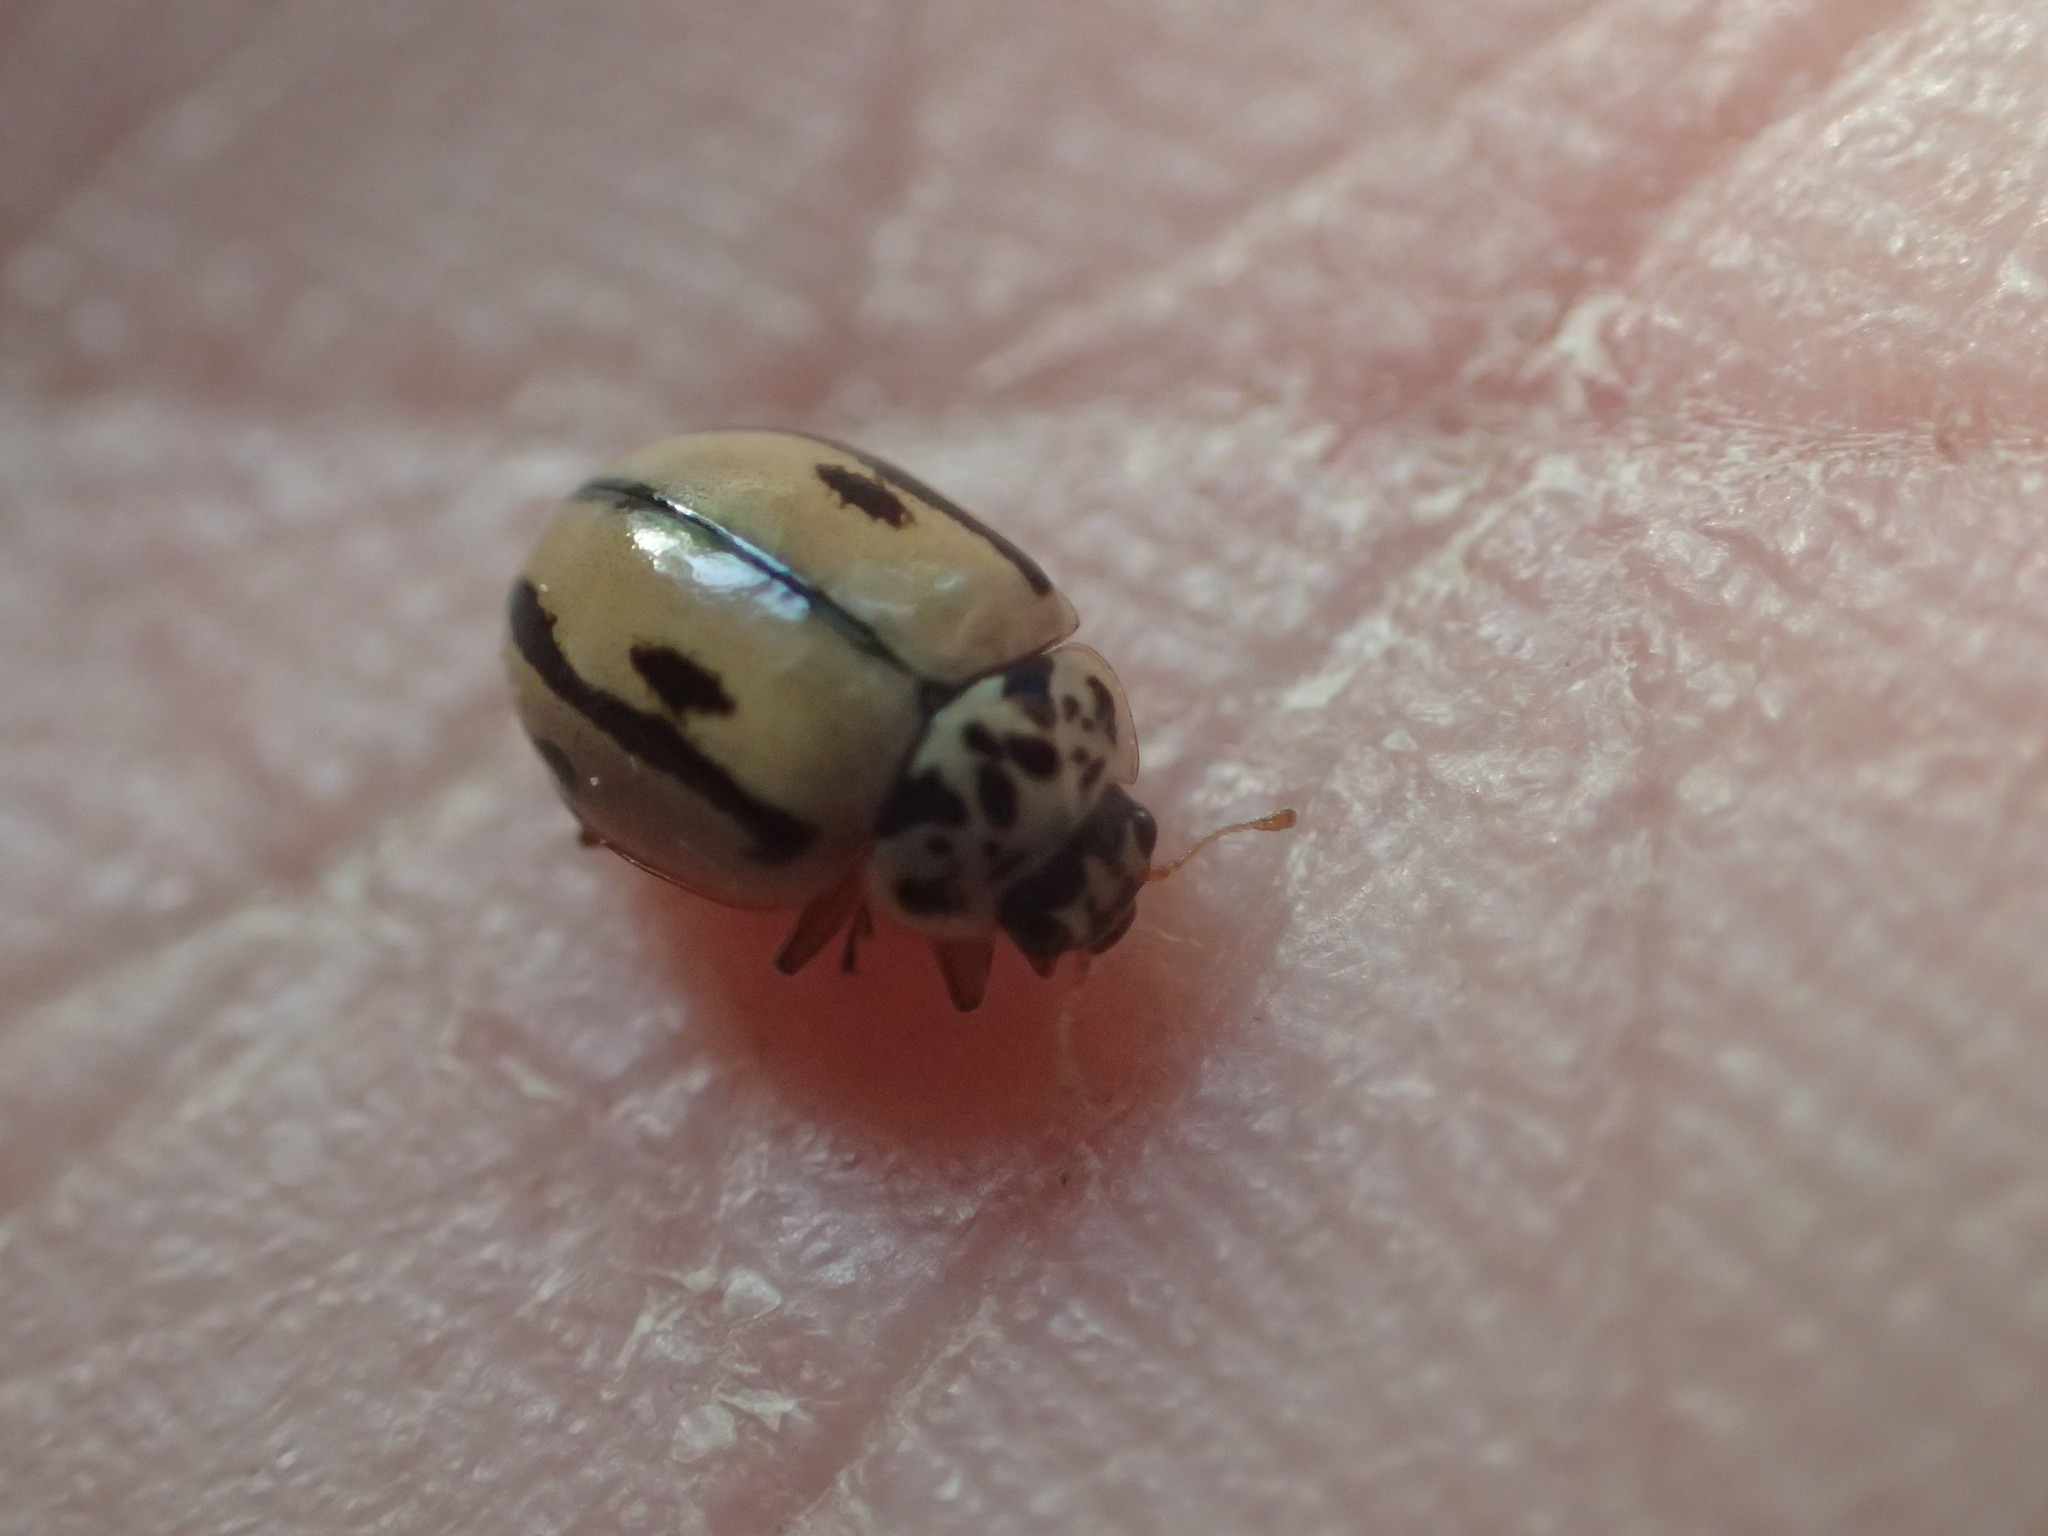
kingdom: Animalia
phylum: Arthropoda
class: Insecta
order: Coleoptera
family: Coccinellidae
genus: Mulsantina
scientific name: Mulsantina hudsonica
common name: Hudsonian ladybird
